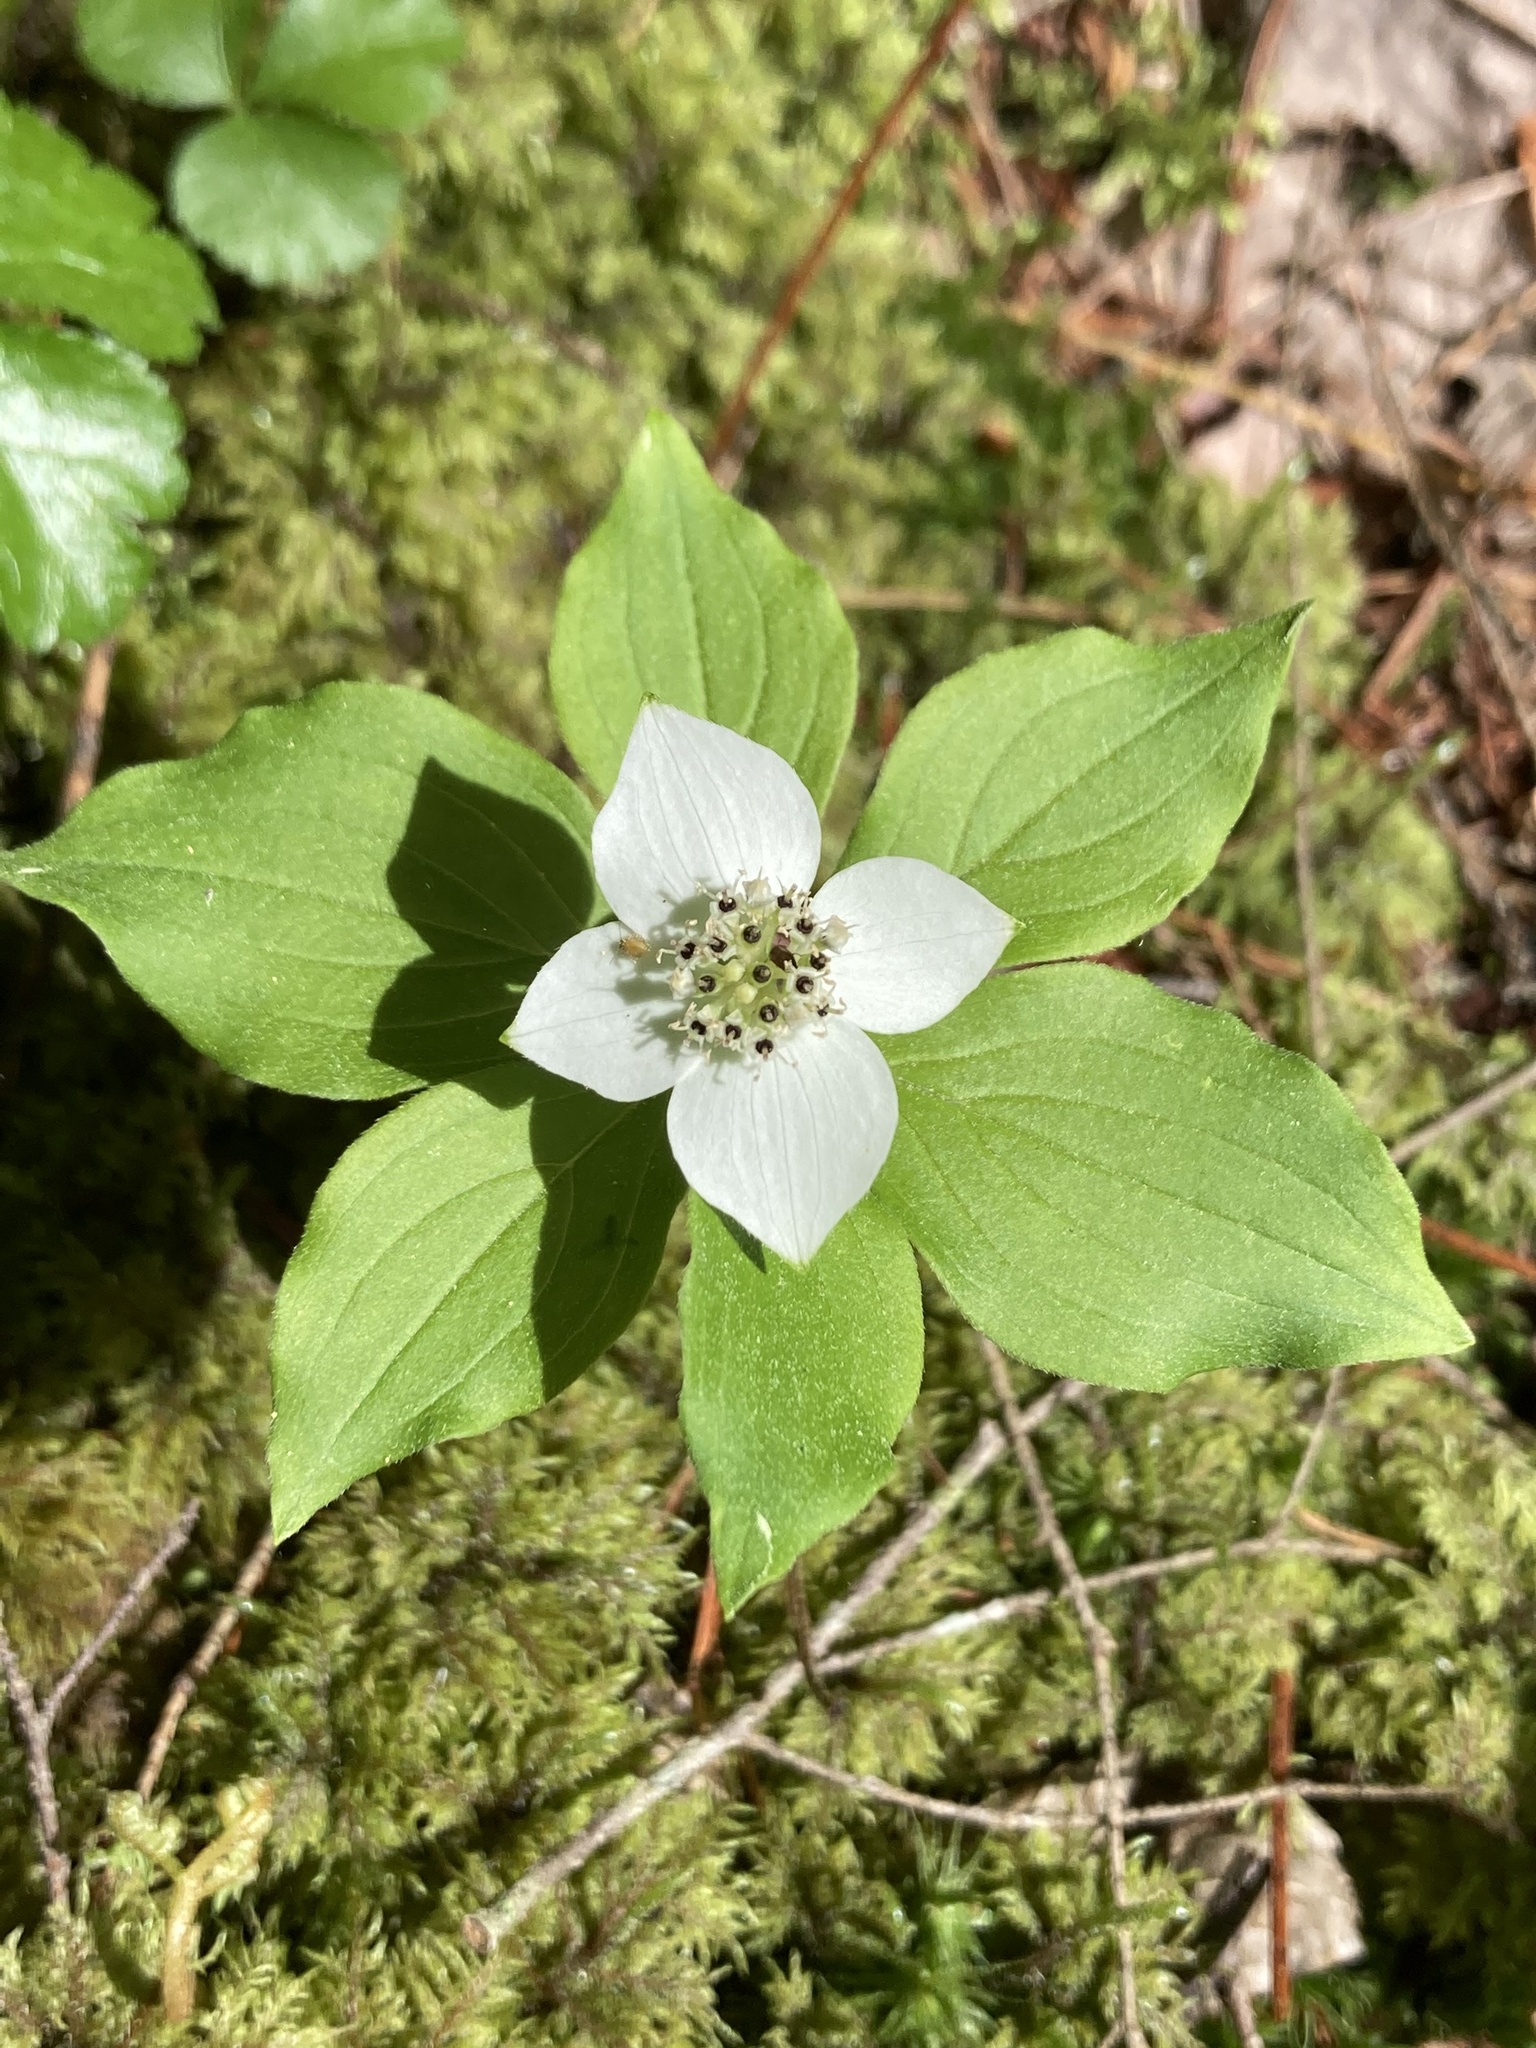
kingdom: Plantae
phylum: Tracheophyta
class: Magnoliopsida
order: Cornales
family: Cornaceae
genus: Cornus
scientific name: Cornus canadensis
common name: Creeping dogwood
